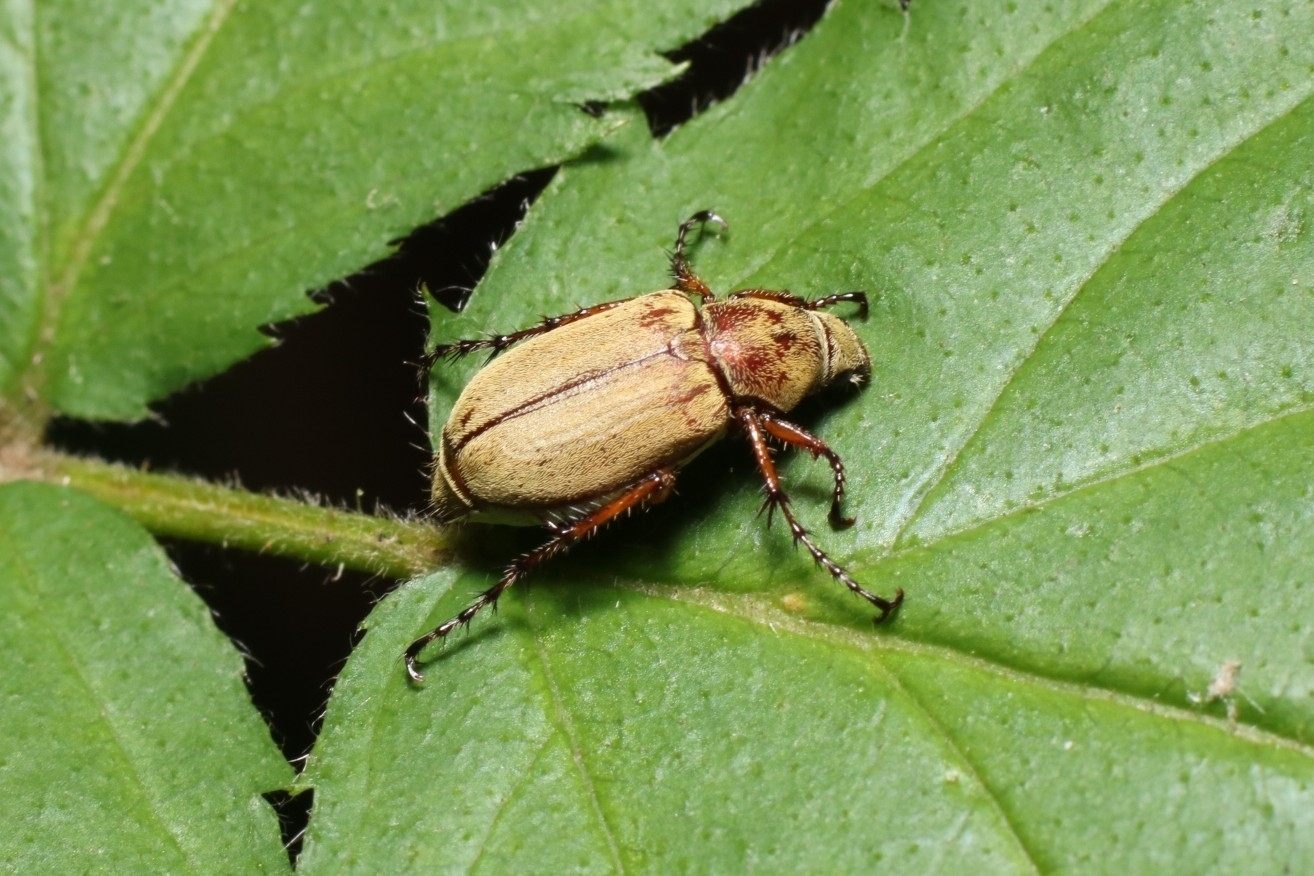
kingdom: Animalia
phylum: Arthropoda
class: Insecta
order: Coleoptera
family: Scarabaeidae
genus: Macrodactylus
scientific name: Macrodactylus subspinosus
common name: American rose chafer
